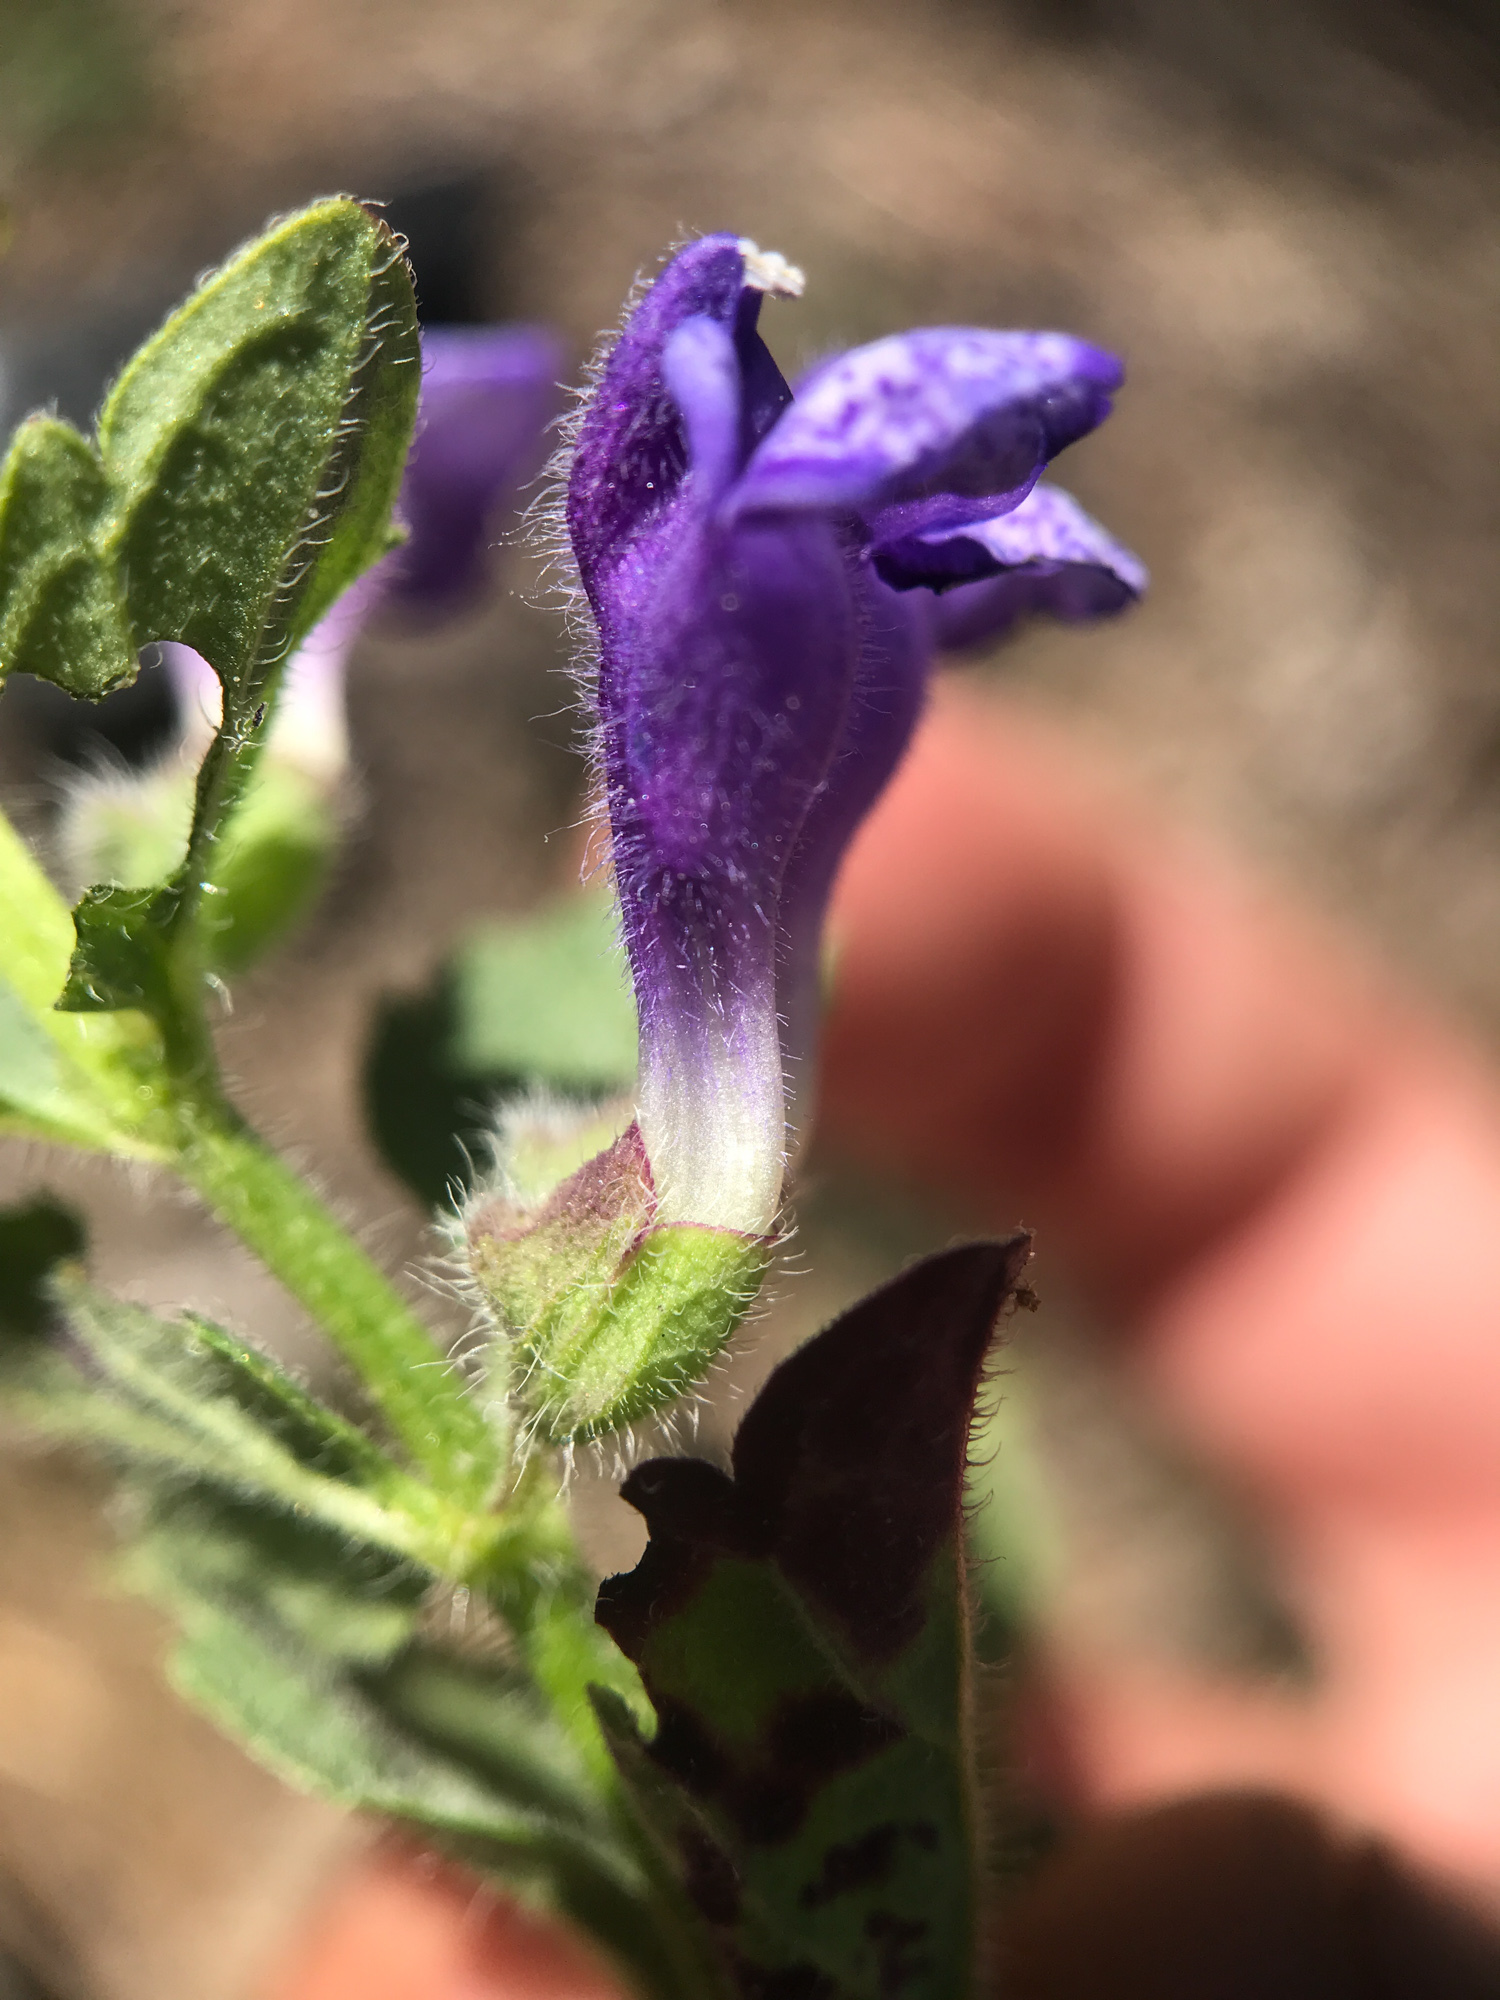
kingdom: Plantae
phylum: Tracheophyta
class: Magnoliopsida
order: Lamiales
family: Lamiaceae
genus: Scutellaria
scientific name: Scutellaria tuberosa
